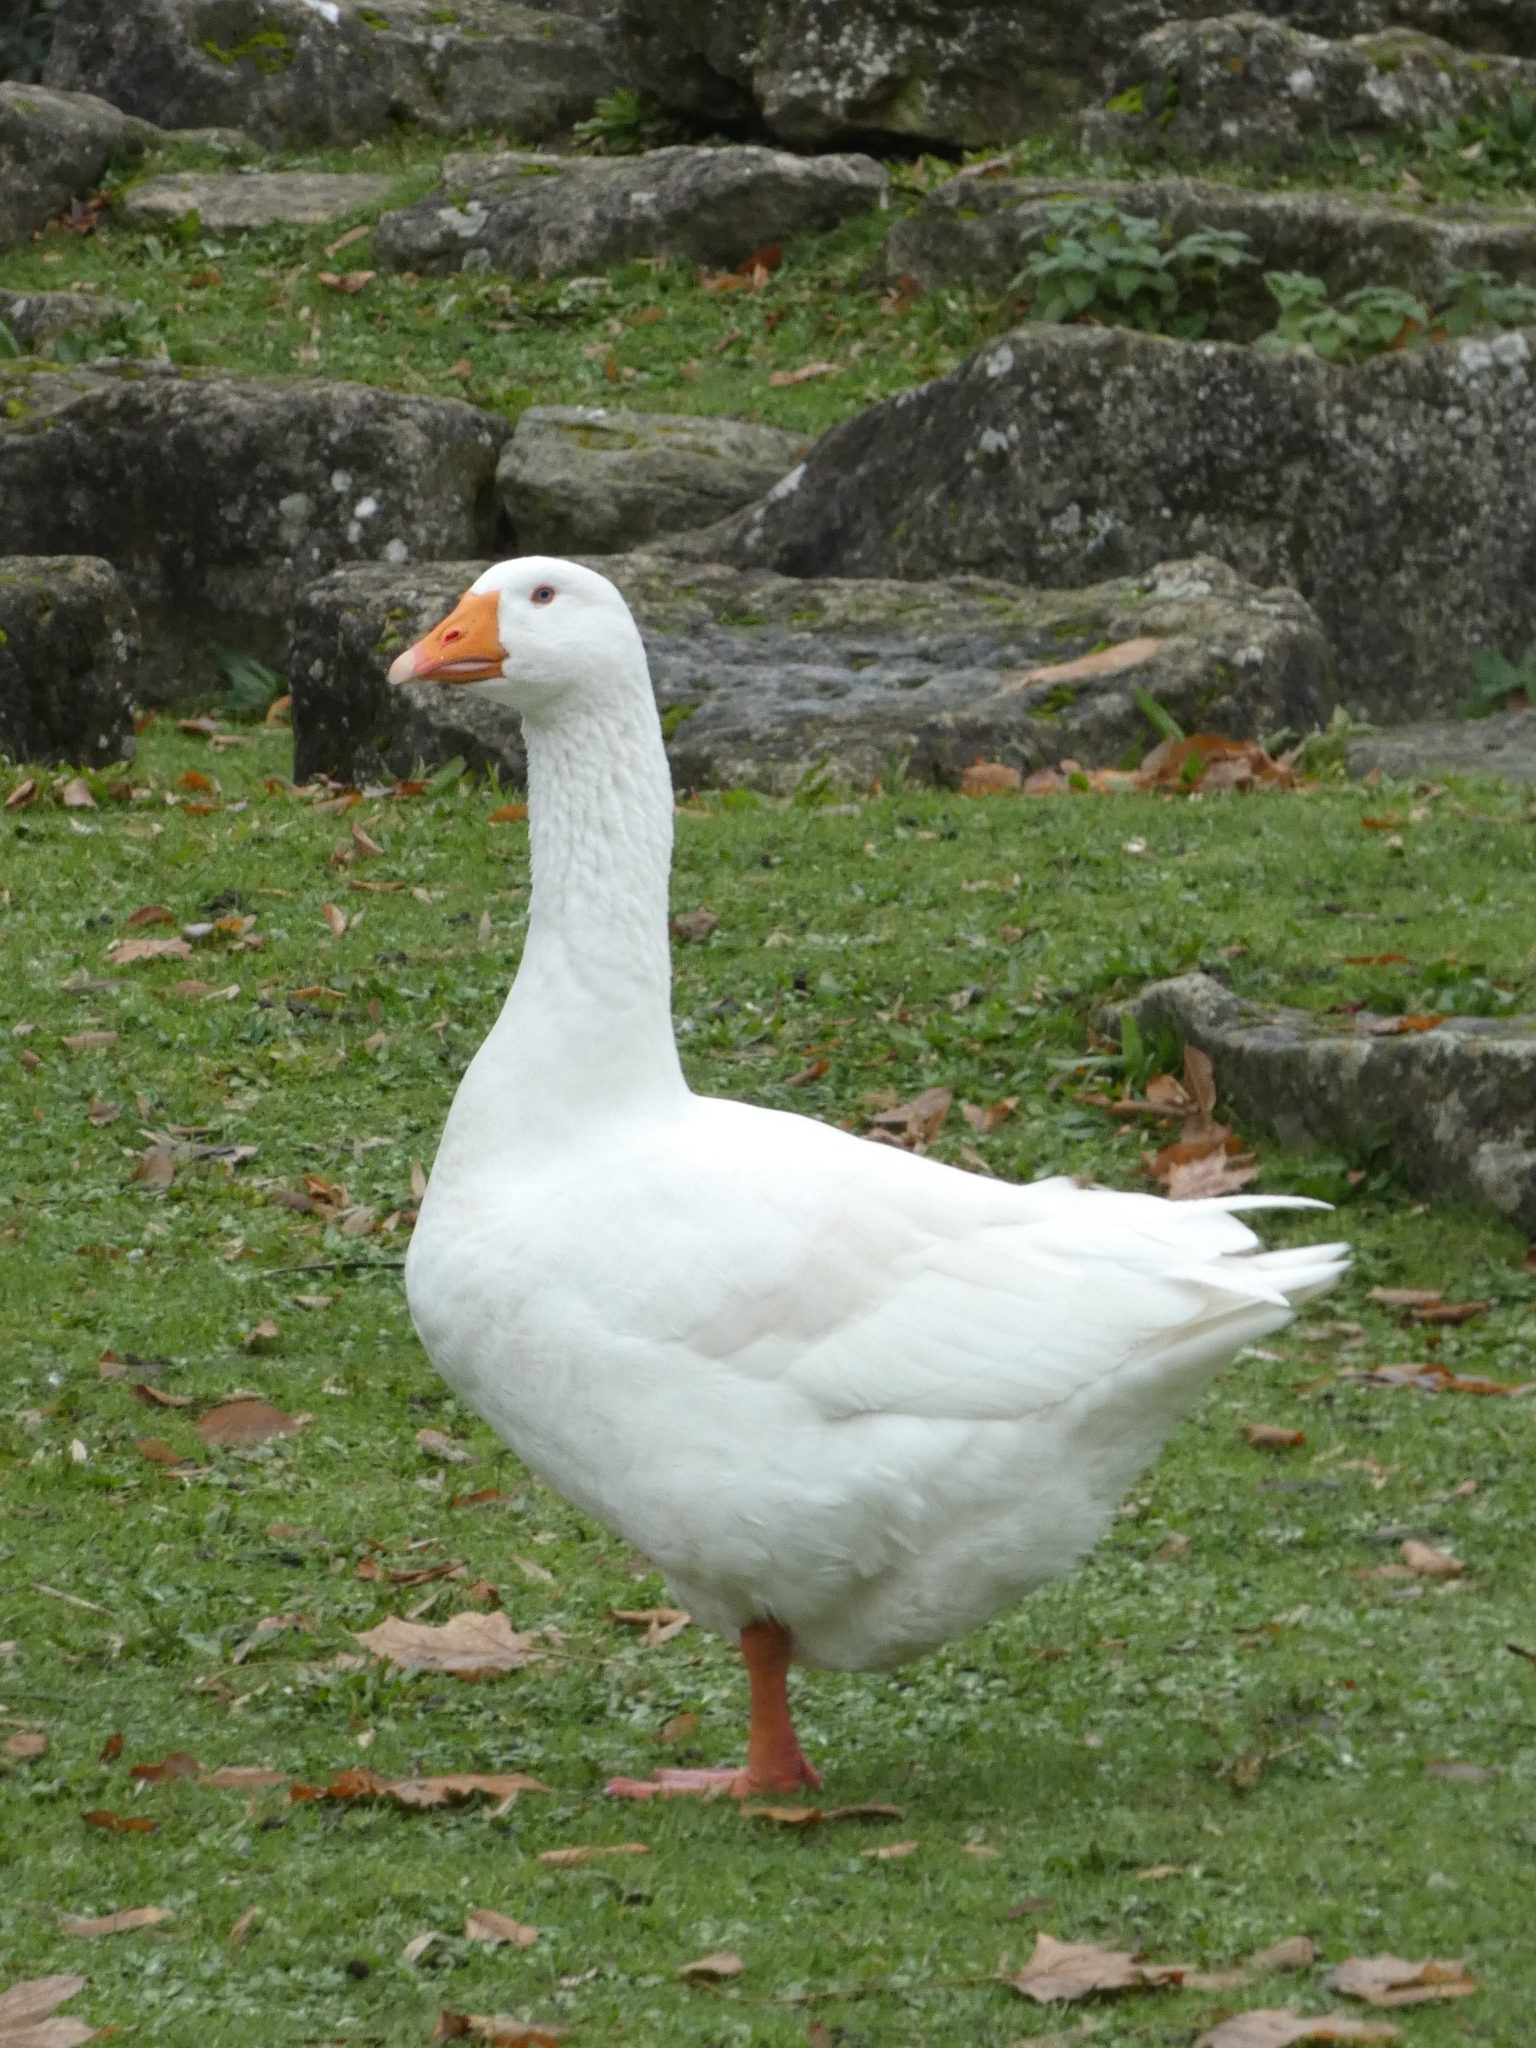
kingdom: Animalia
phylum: Chordata
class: Aves
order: Anseriformes
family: Anatidae
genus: Anser
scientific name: Anser anser
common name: Greylag goose
